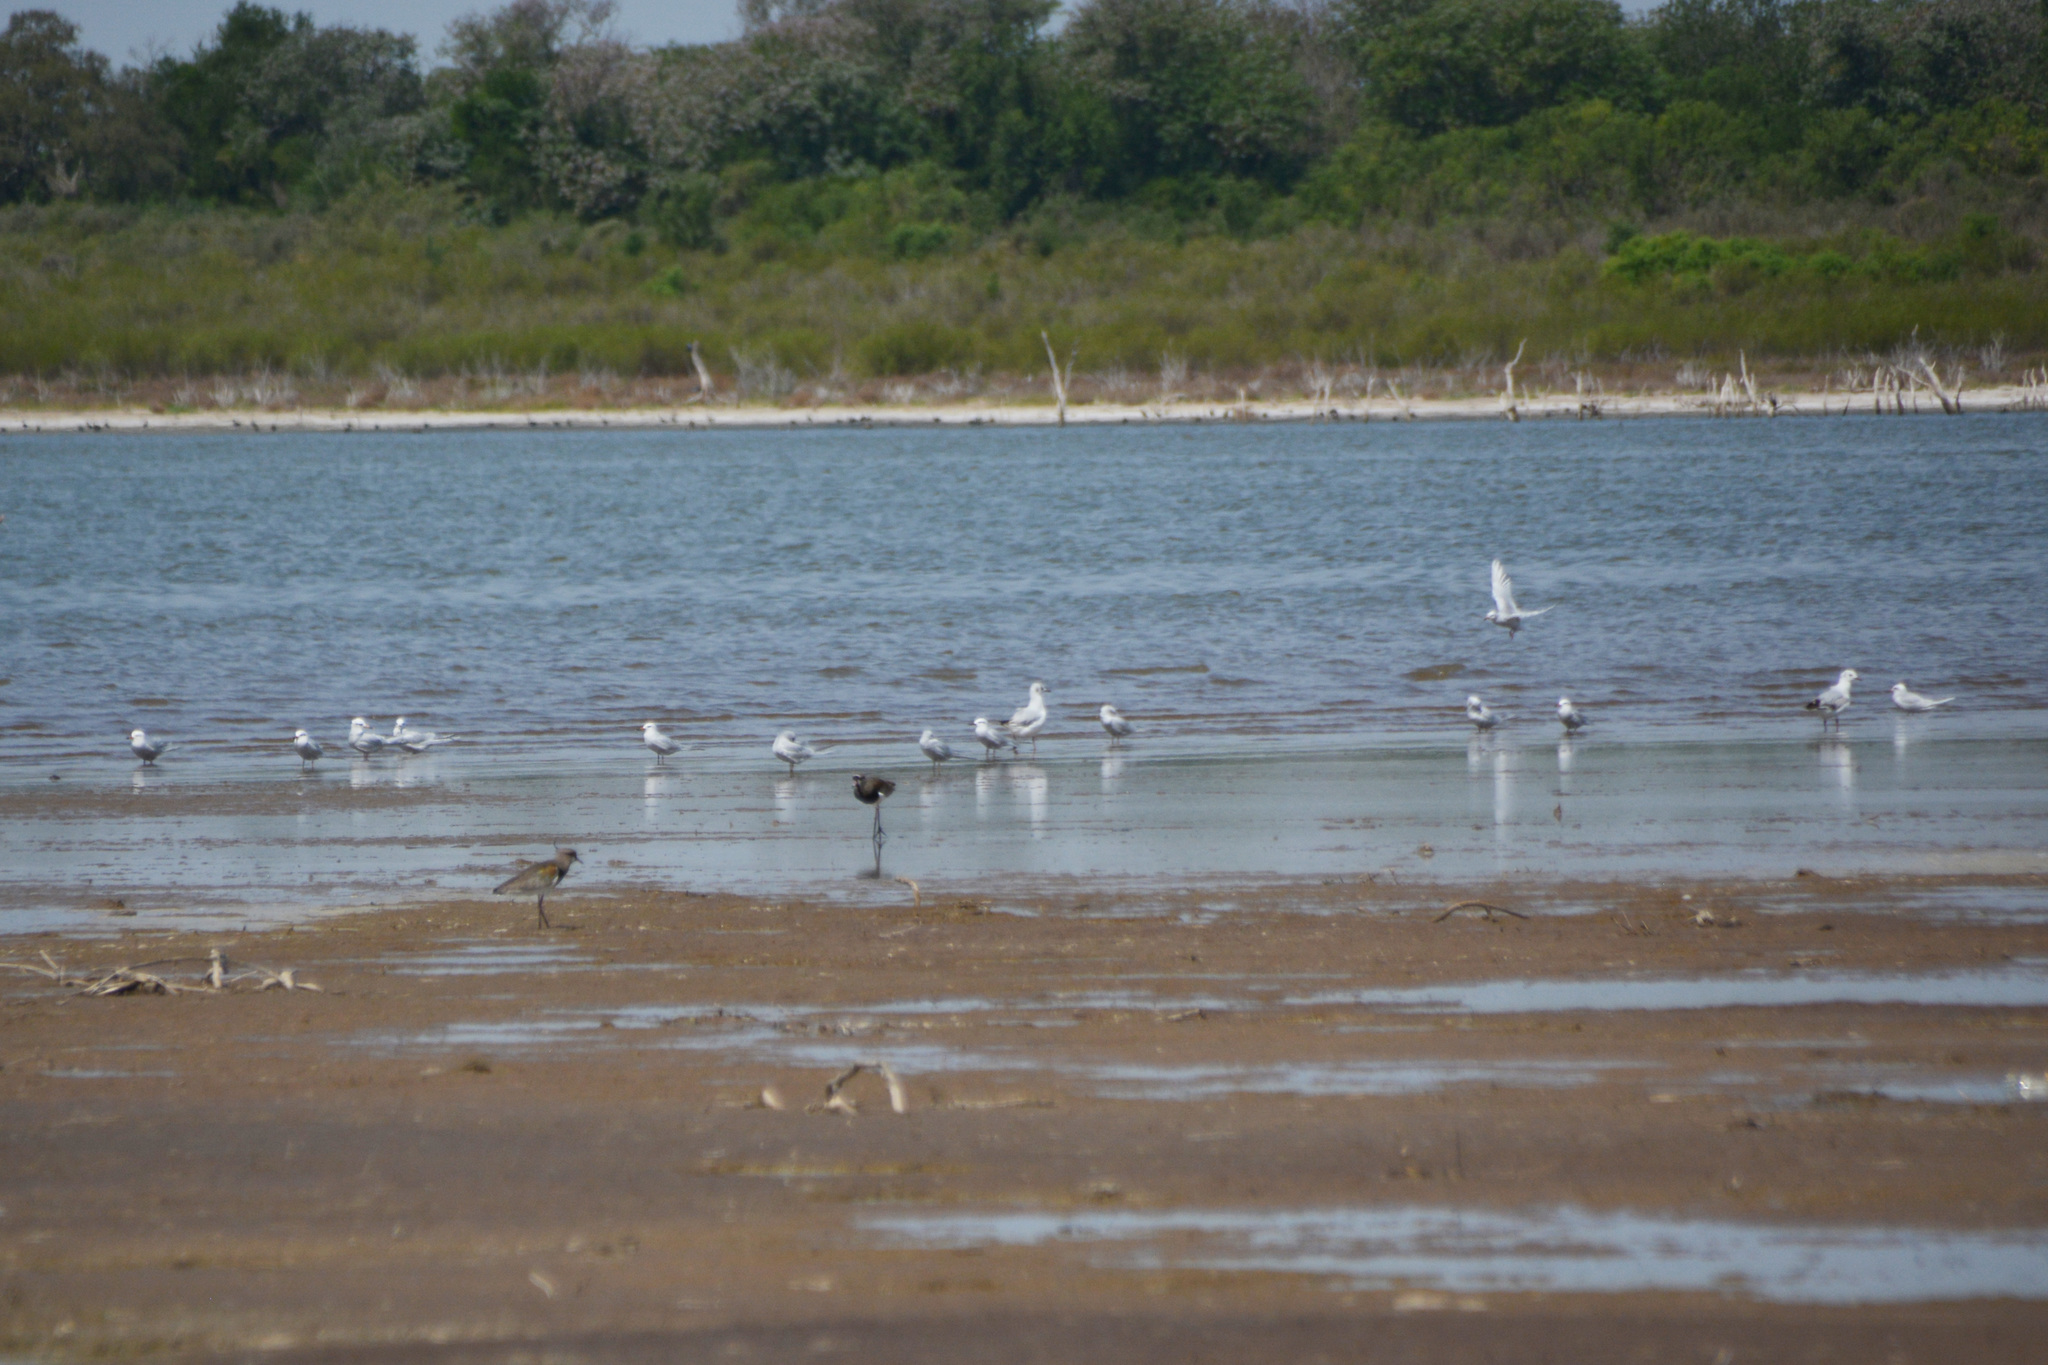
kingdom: Animalia
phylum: Chordata
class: Aves
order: Charadriiformes
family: Charadriidae
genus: Vanellus
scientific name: Vanellus chilensis
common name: Southern lapwing
